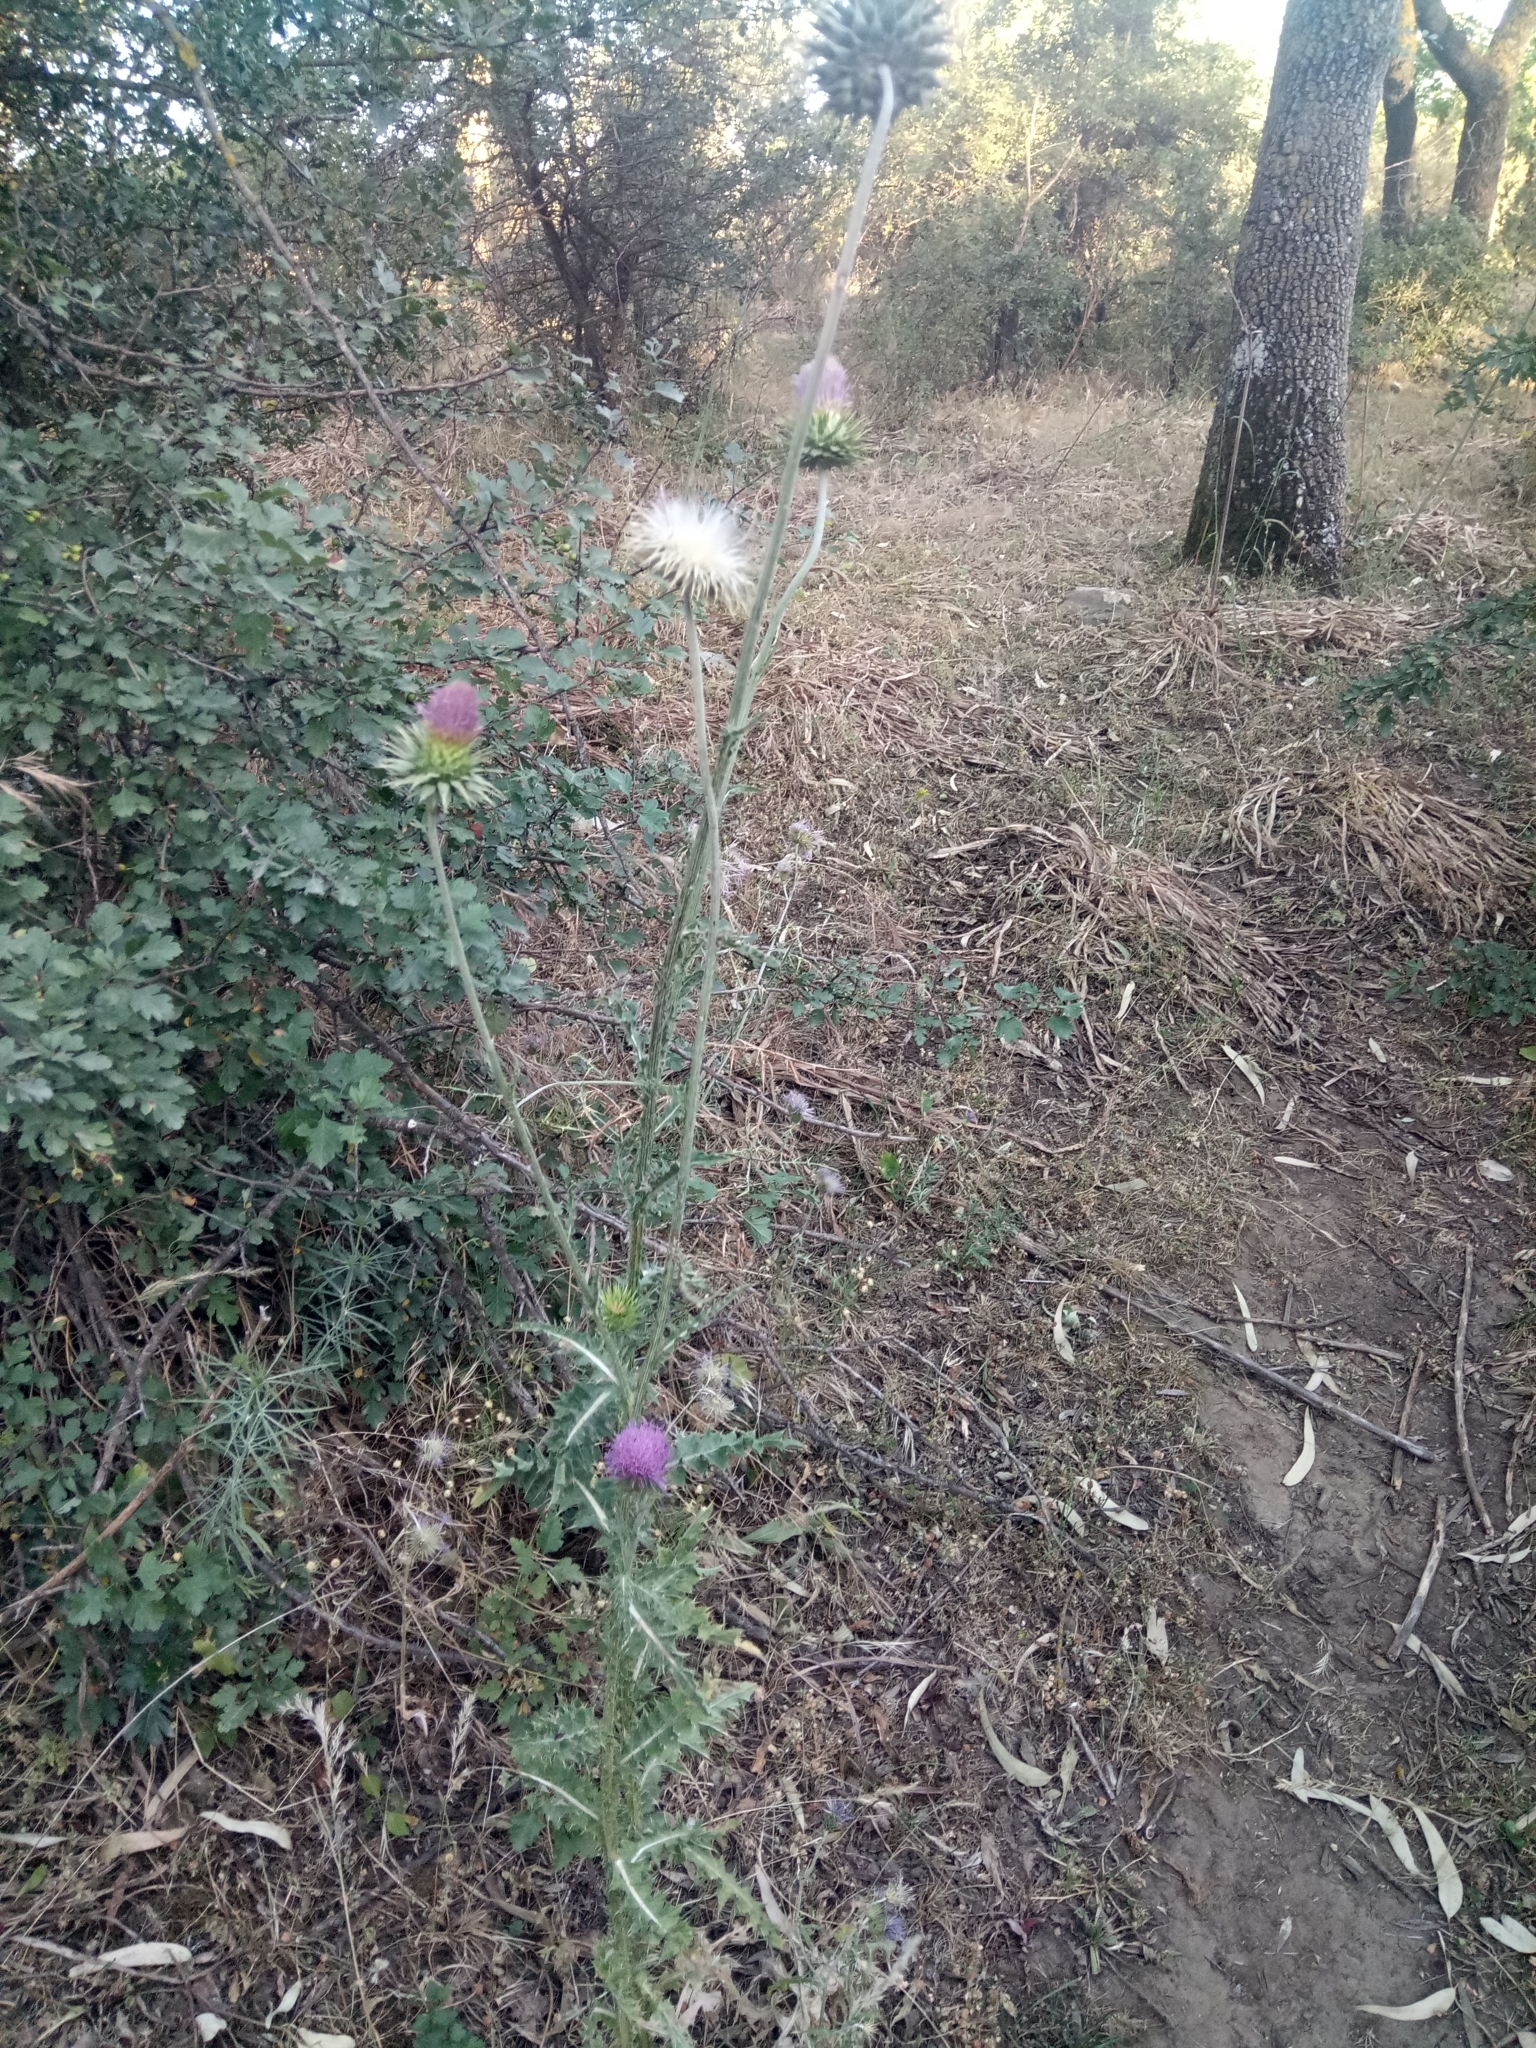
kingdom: Plantae
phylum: Tracheophyta
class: Magnoliopsida
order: Asterales
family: Asteraceae
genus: Carduus
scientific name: Carduus macrocephalus
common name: Giant thistle
